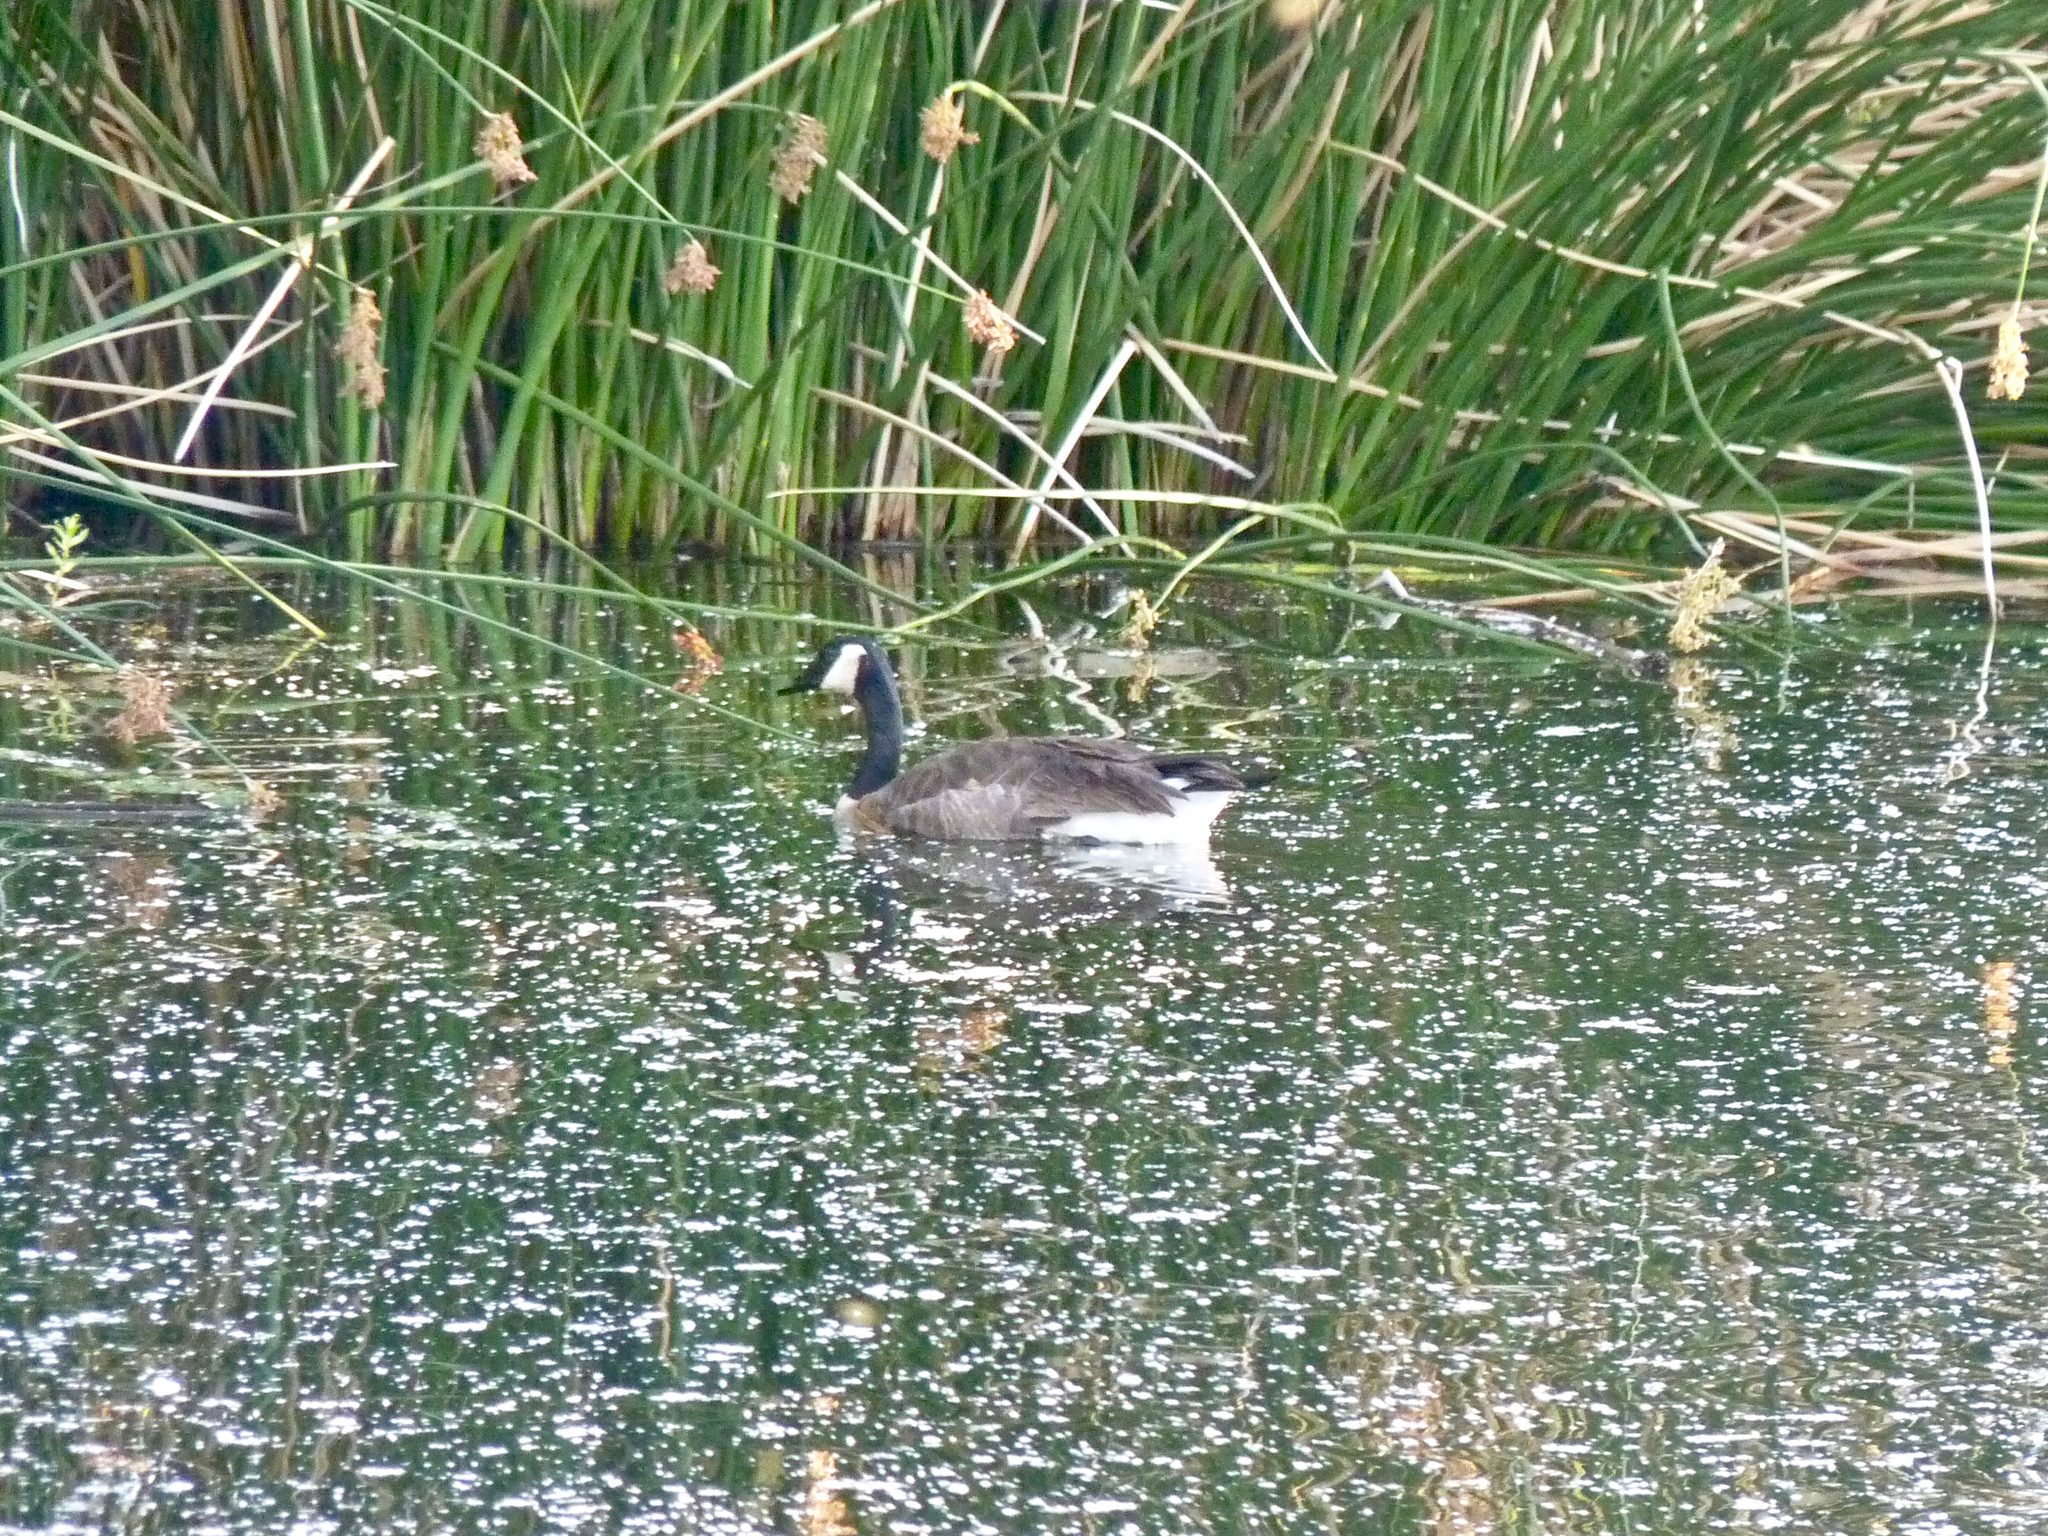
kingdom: Animalia
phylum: Chordata
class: Aves
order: Anseriformes
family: Anatidae
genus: Branta
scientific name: Branta canadensis
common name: Canada goose
